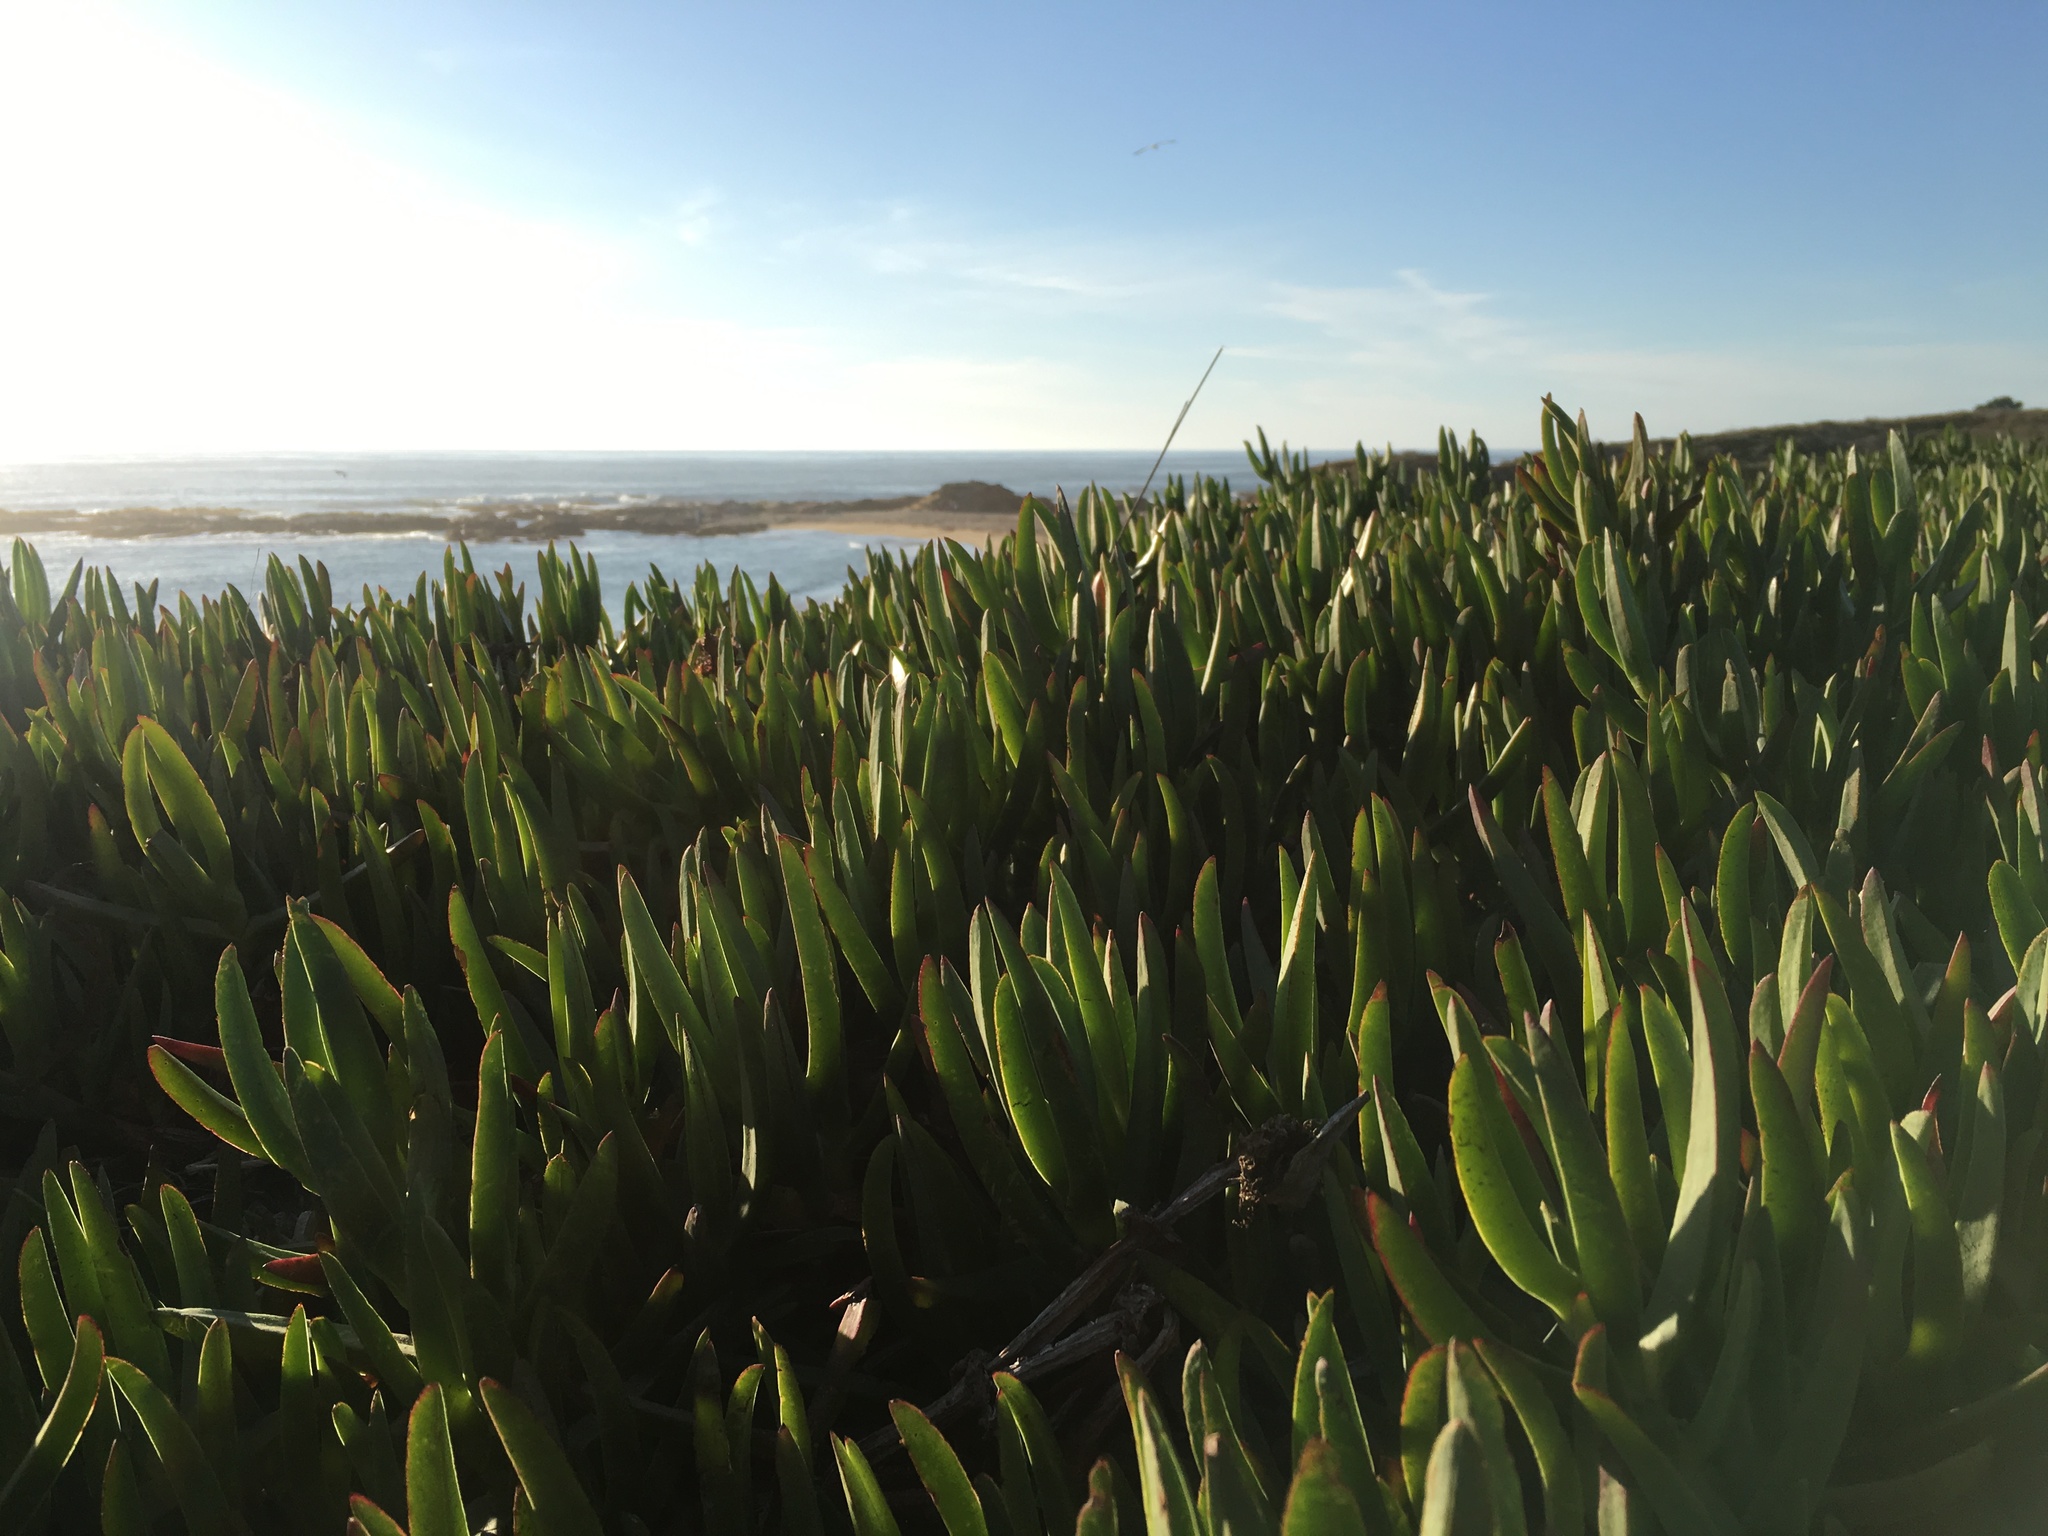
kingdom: Plantae
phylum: Tracheophyta
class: Magnoliopsida
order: Caryophyllales
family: Aizoaceae
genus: Carpobrotus
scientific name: Carpobrotus edulis
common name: Hottentot-fig
